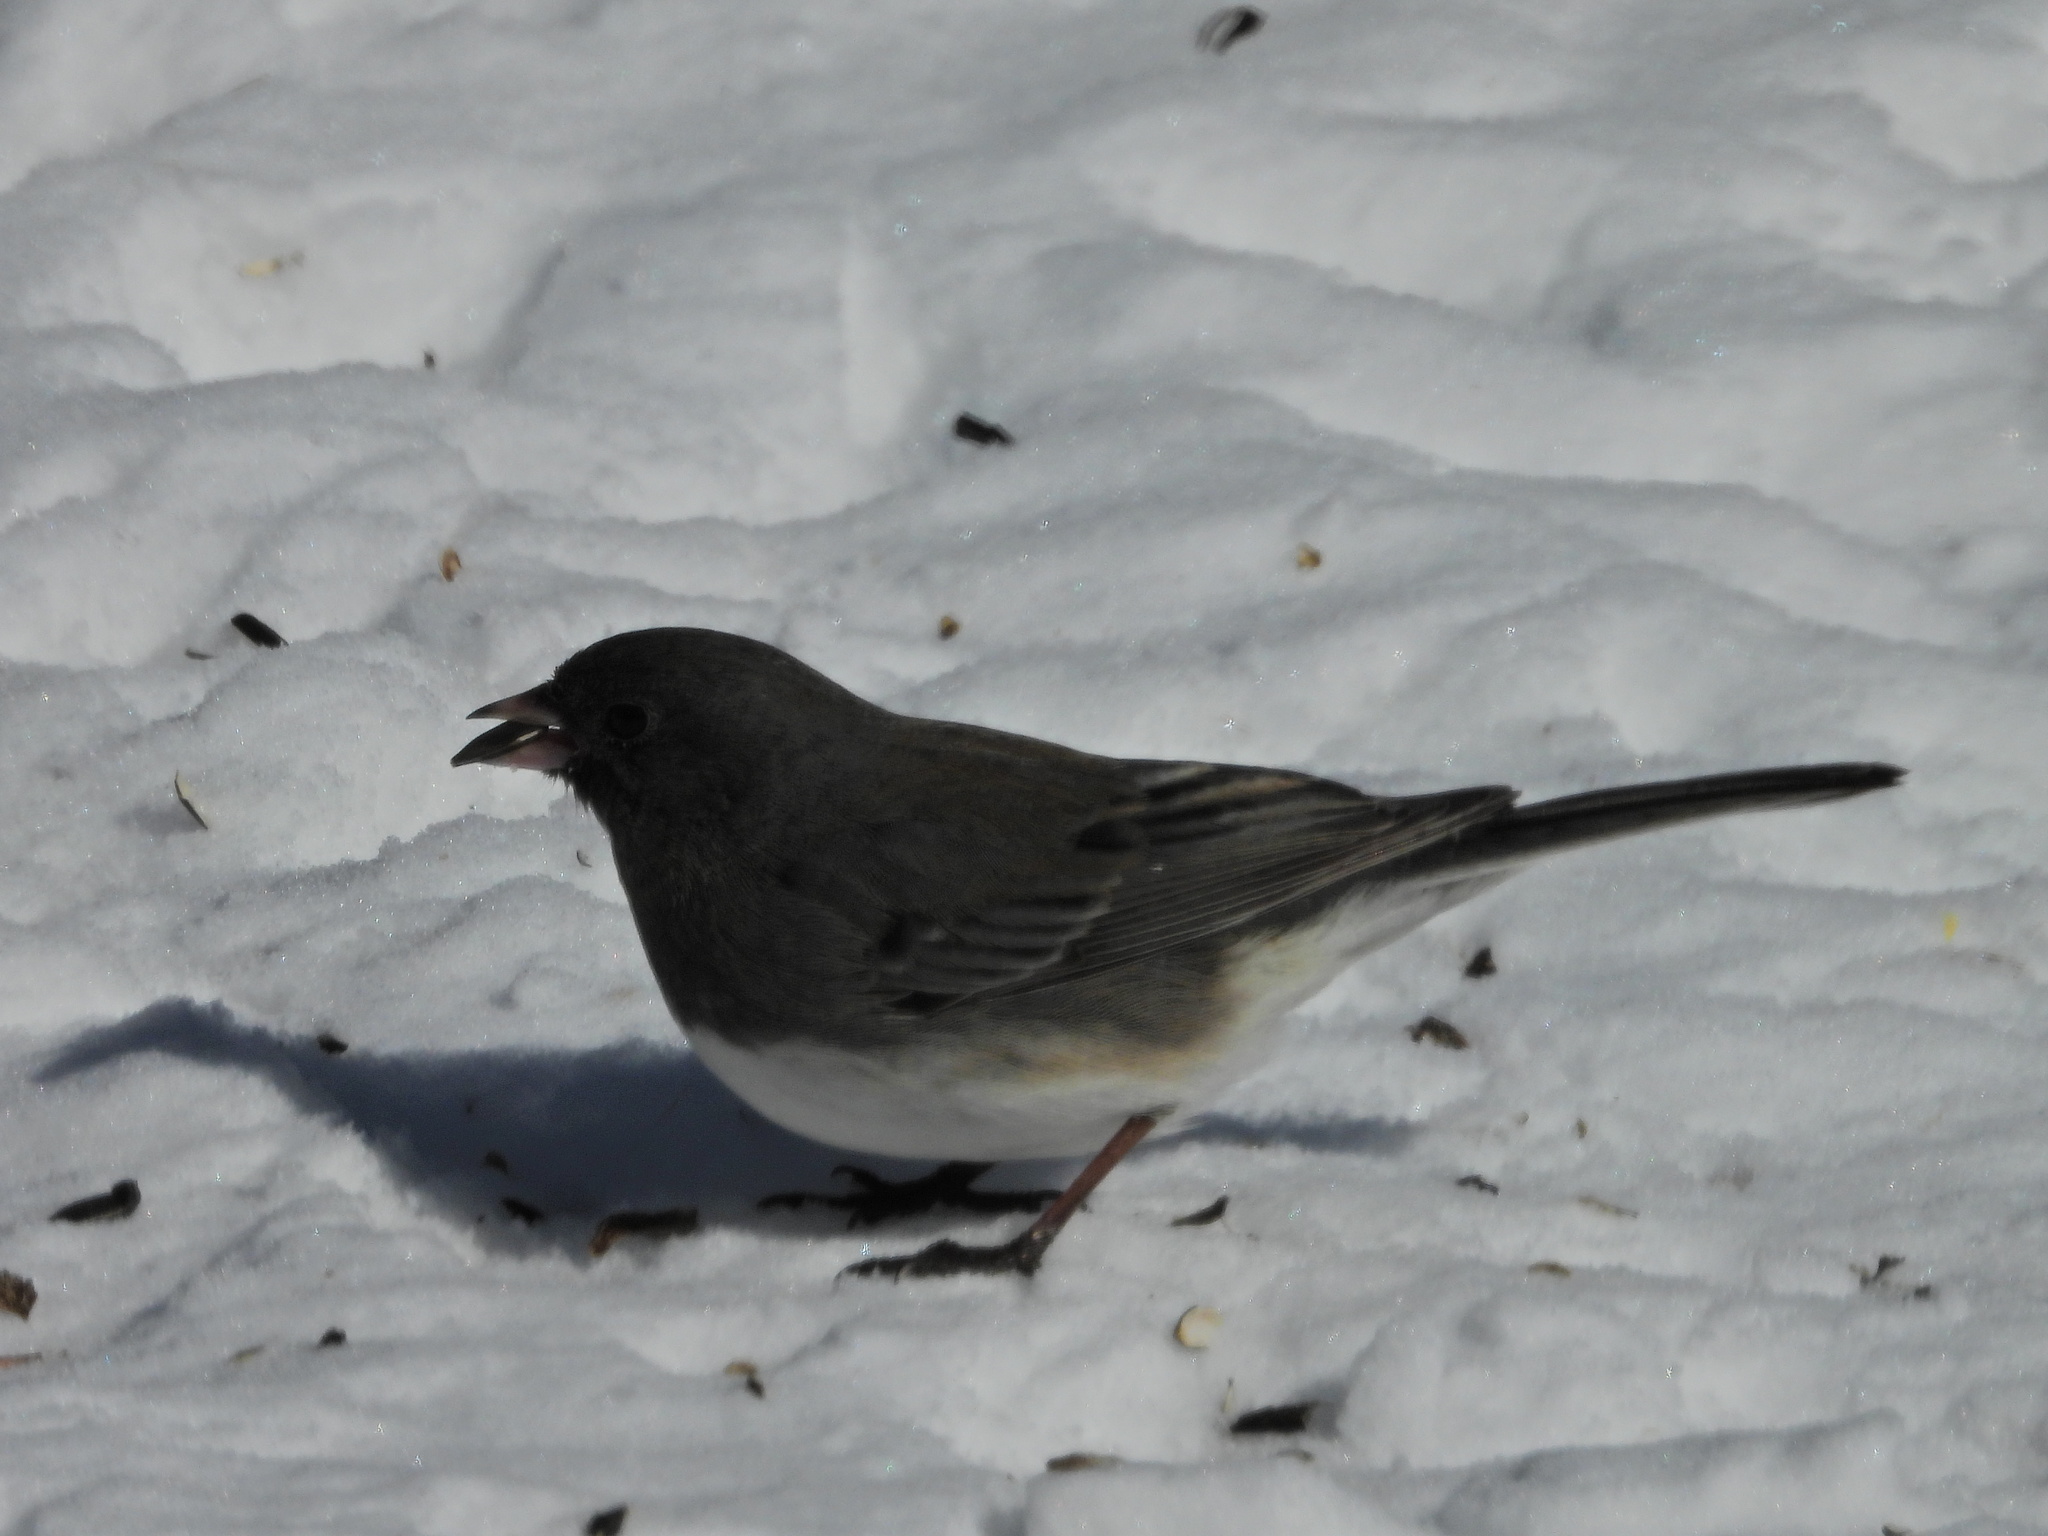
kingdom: Animalia
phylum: Chordata
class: Aves
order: Passeriformes
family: Passerellidae
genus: Junco
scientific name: Junco hyemalis
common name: Dark-eyed junco
